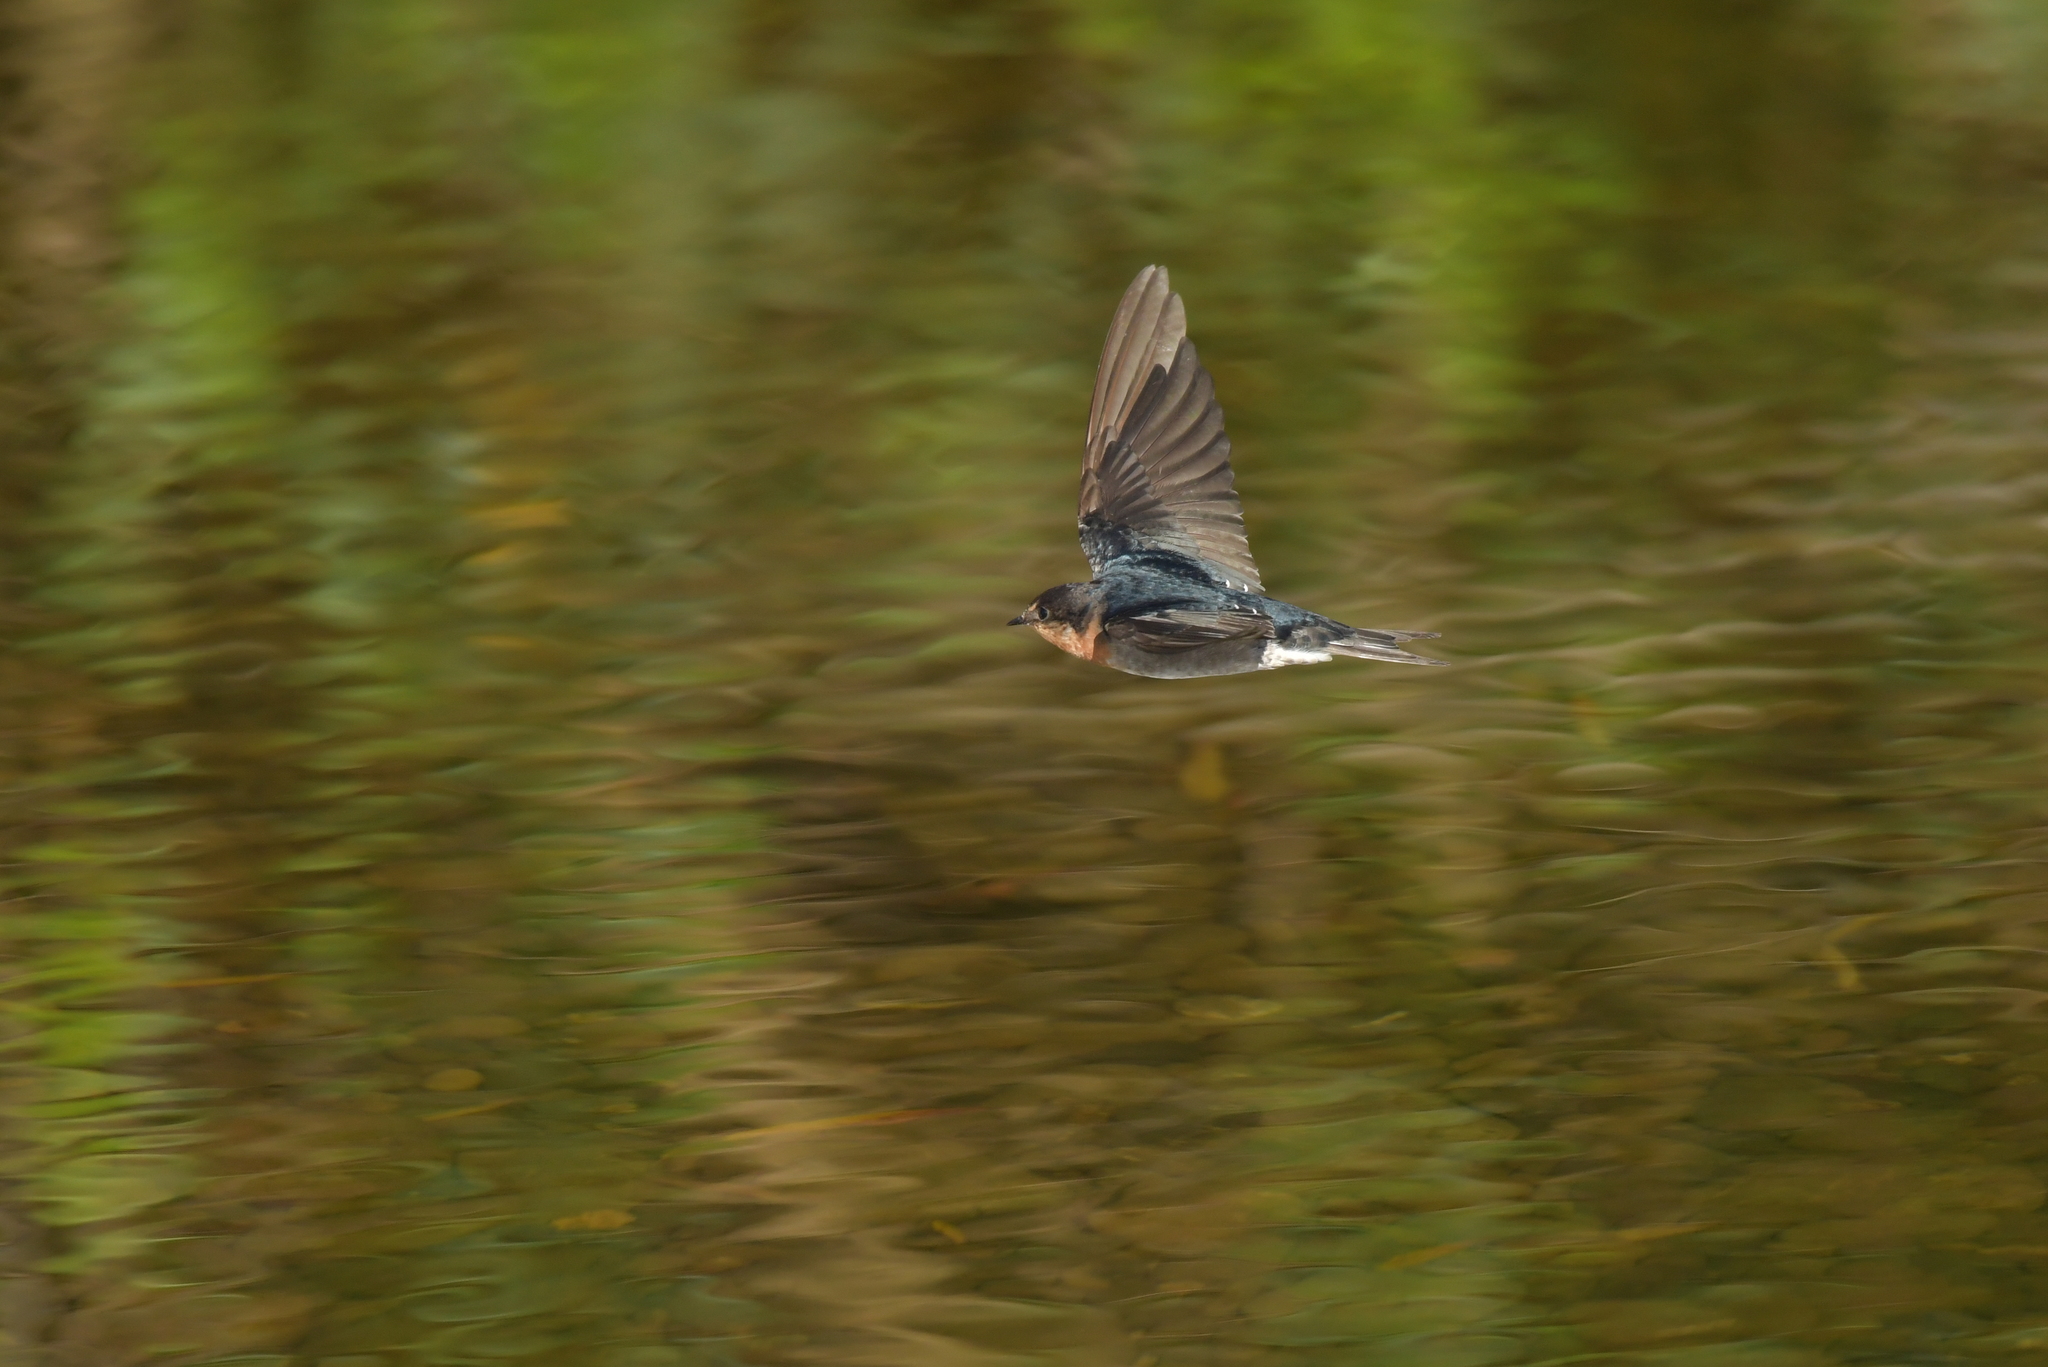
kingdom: Animalia
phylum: Chordata
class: Aves
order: Passeriformes
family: Hirundinidae
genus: Hirundo
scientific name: Hirundo neoxena
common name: Welcome swallow
